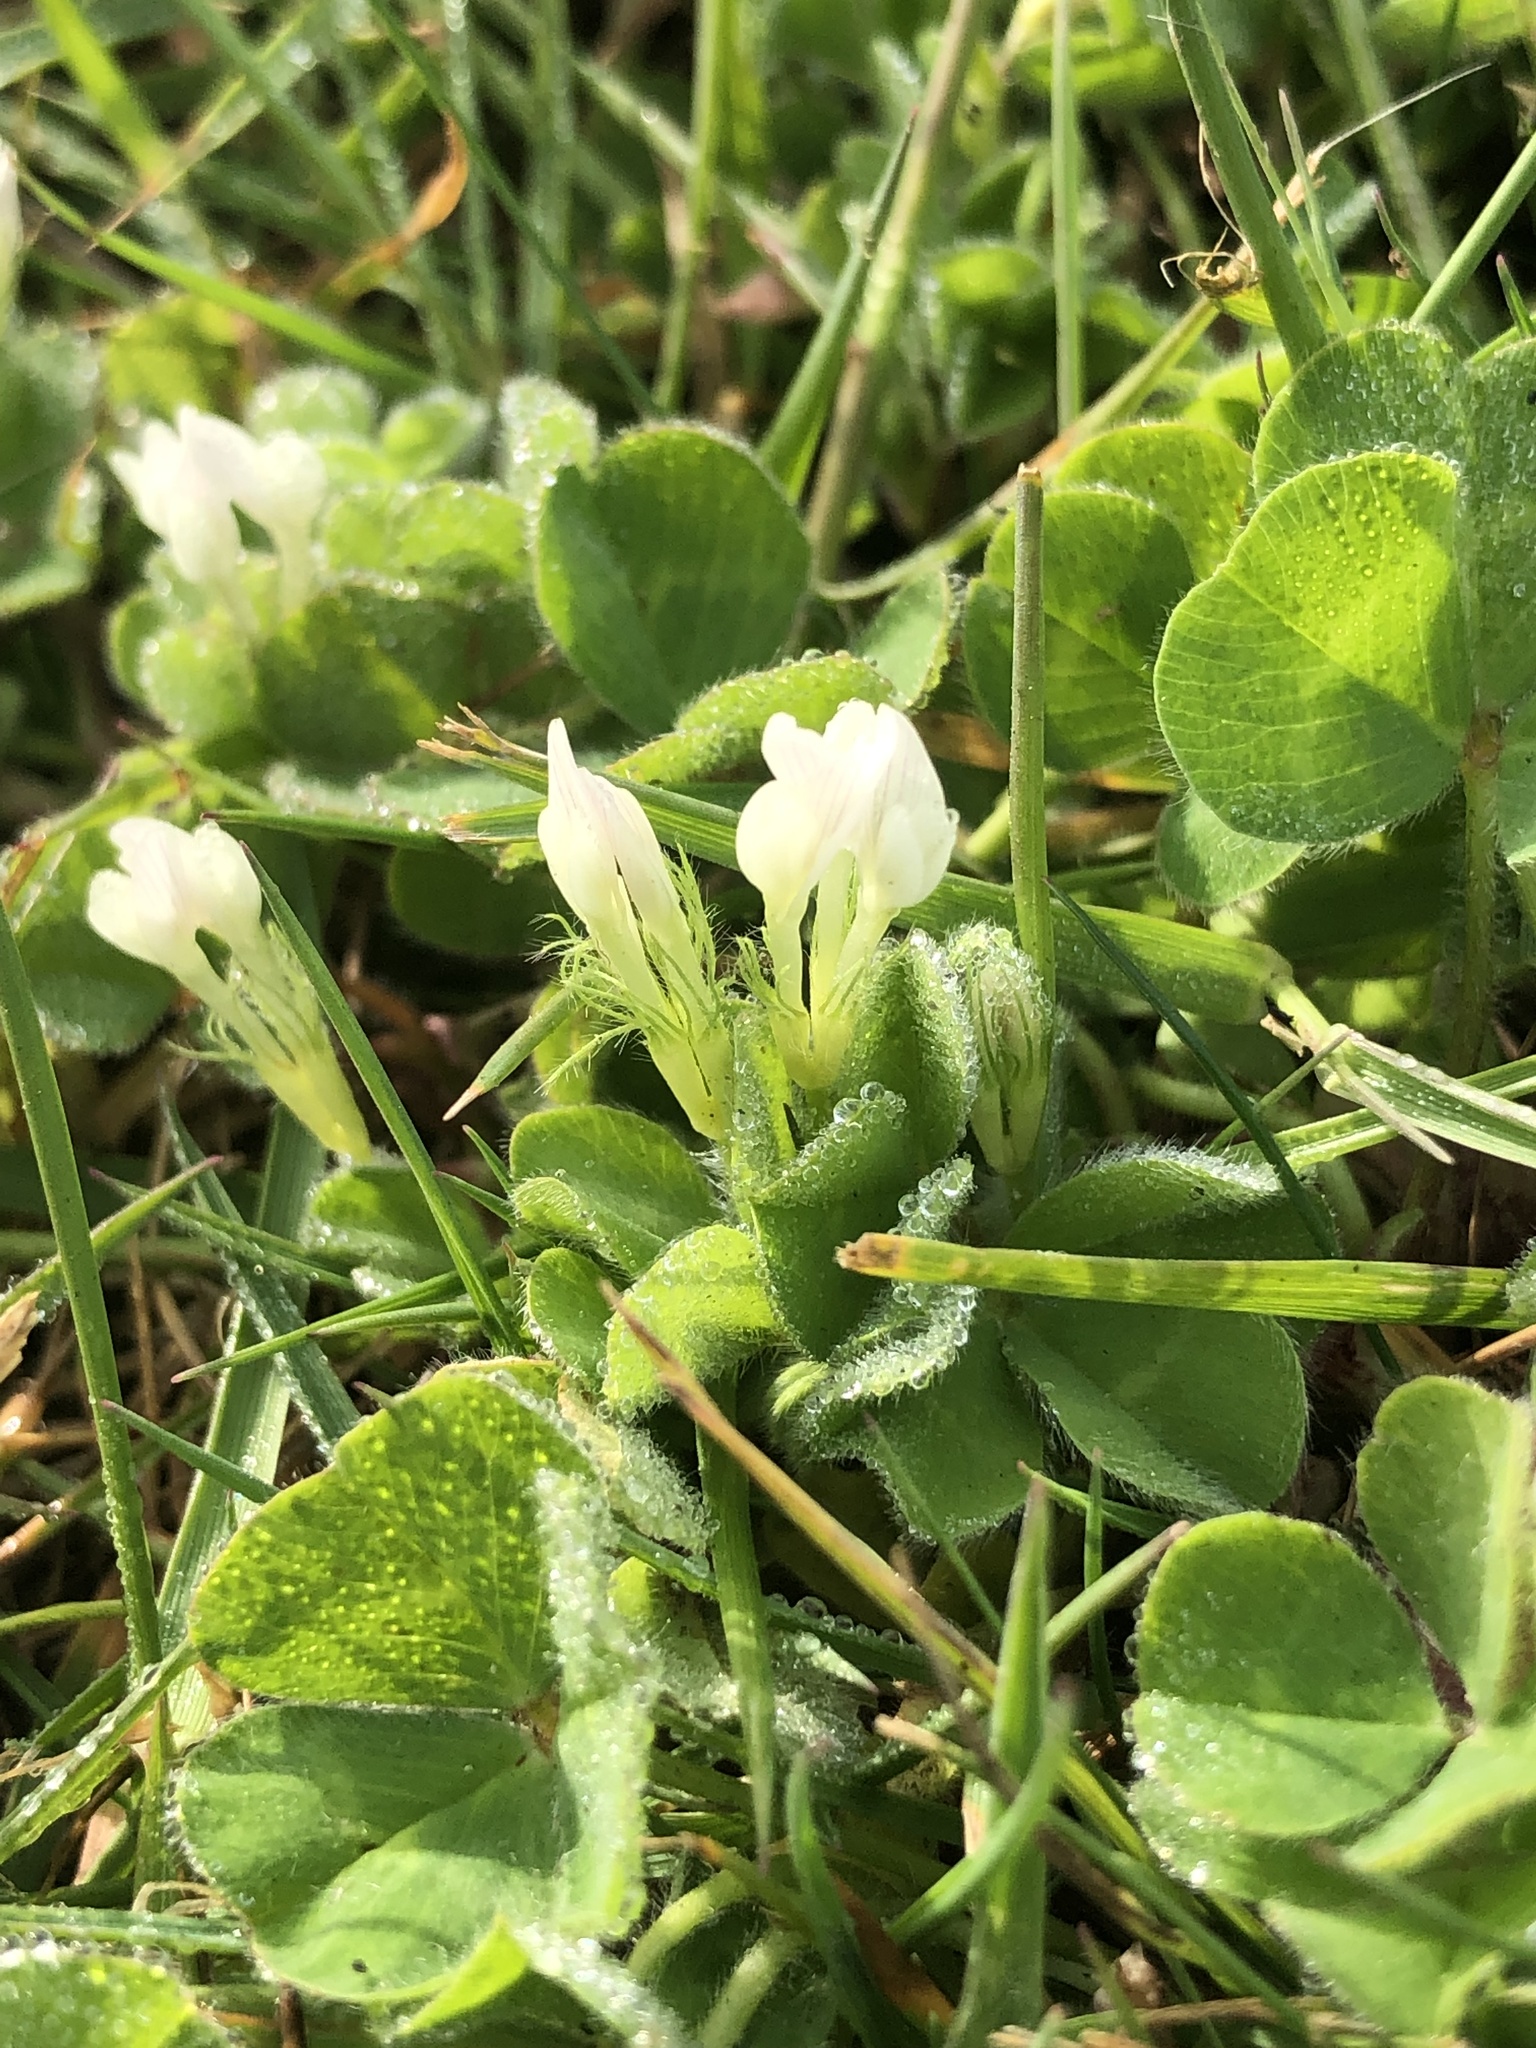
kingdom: Plantae
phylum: Tracheophyta
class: Magnoliopsida
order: Fabales
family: Fabaceae
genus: Trifolium
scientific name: Trifolium subterraneum
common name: Subterranean clover
